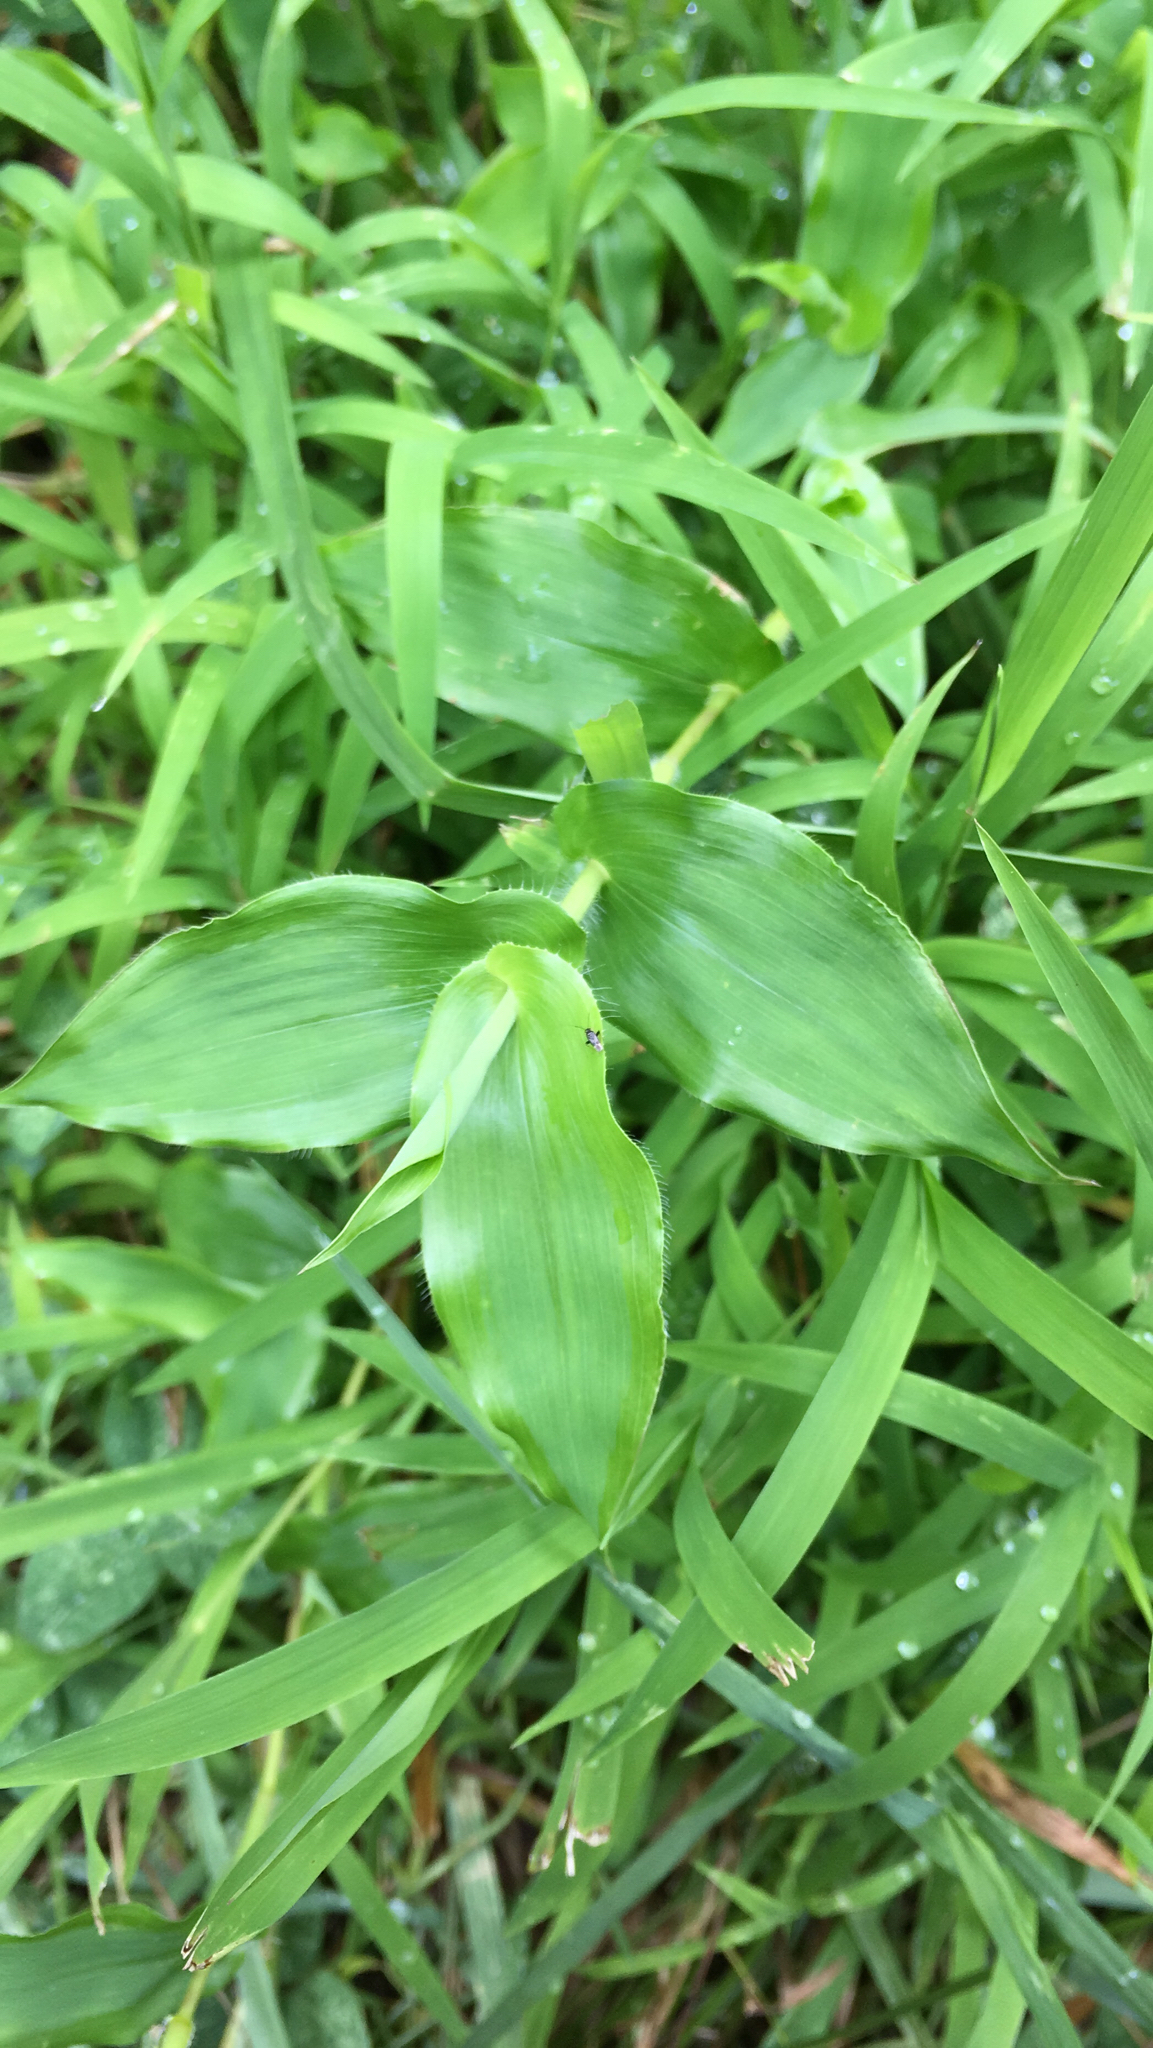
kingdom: Plantae
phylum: Tracheophyta
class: Liliopsida
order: Poales
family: Poaceae
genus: Arthraxon
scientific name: Arthraxon hispidus
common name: Small carpgrass
